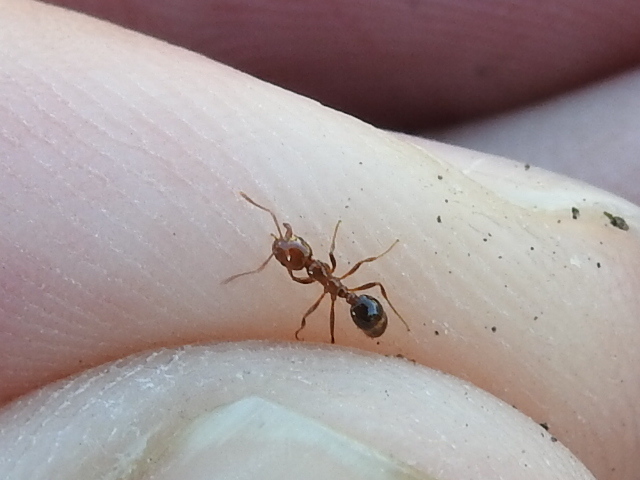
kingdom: Animalia
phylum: Arthropoda
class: Insecta
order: Hymenoptera
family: Formicidae
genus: Solenopsis
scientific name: Solenopsis invicta
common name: Red imported fire ant
